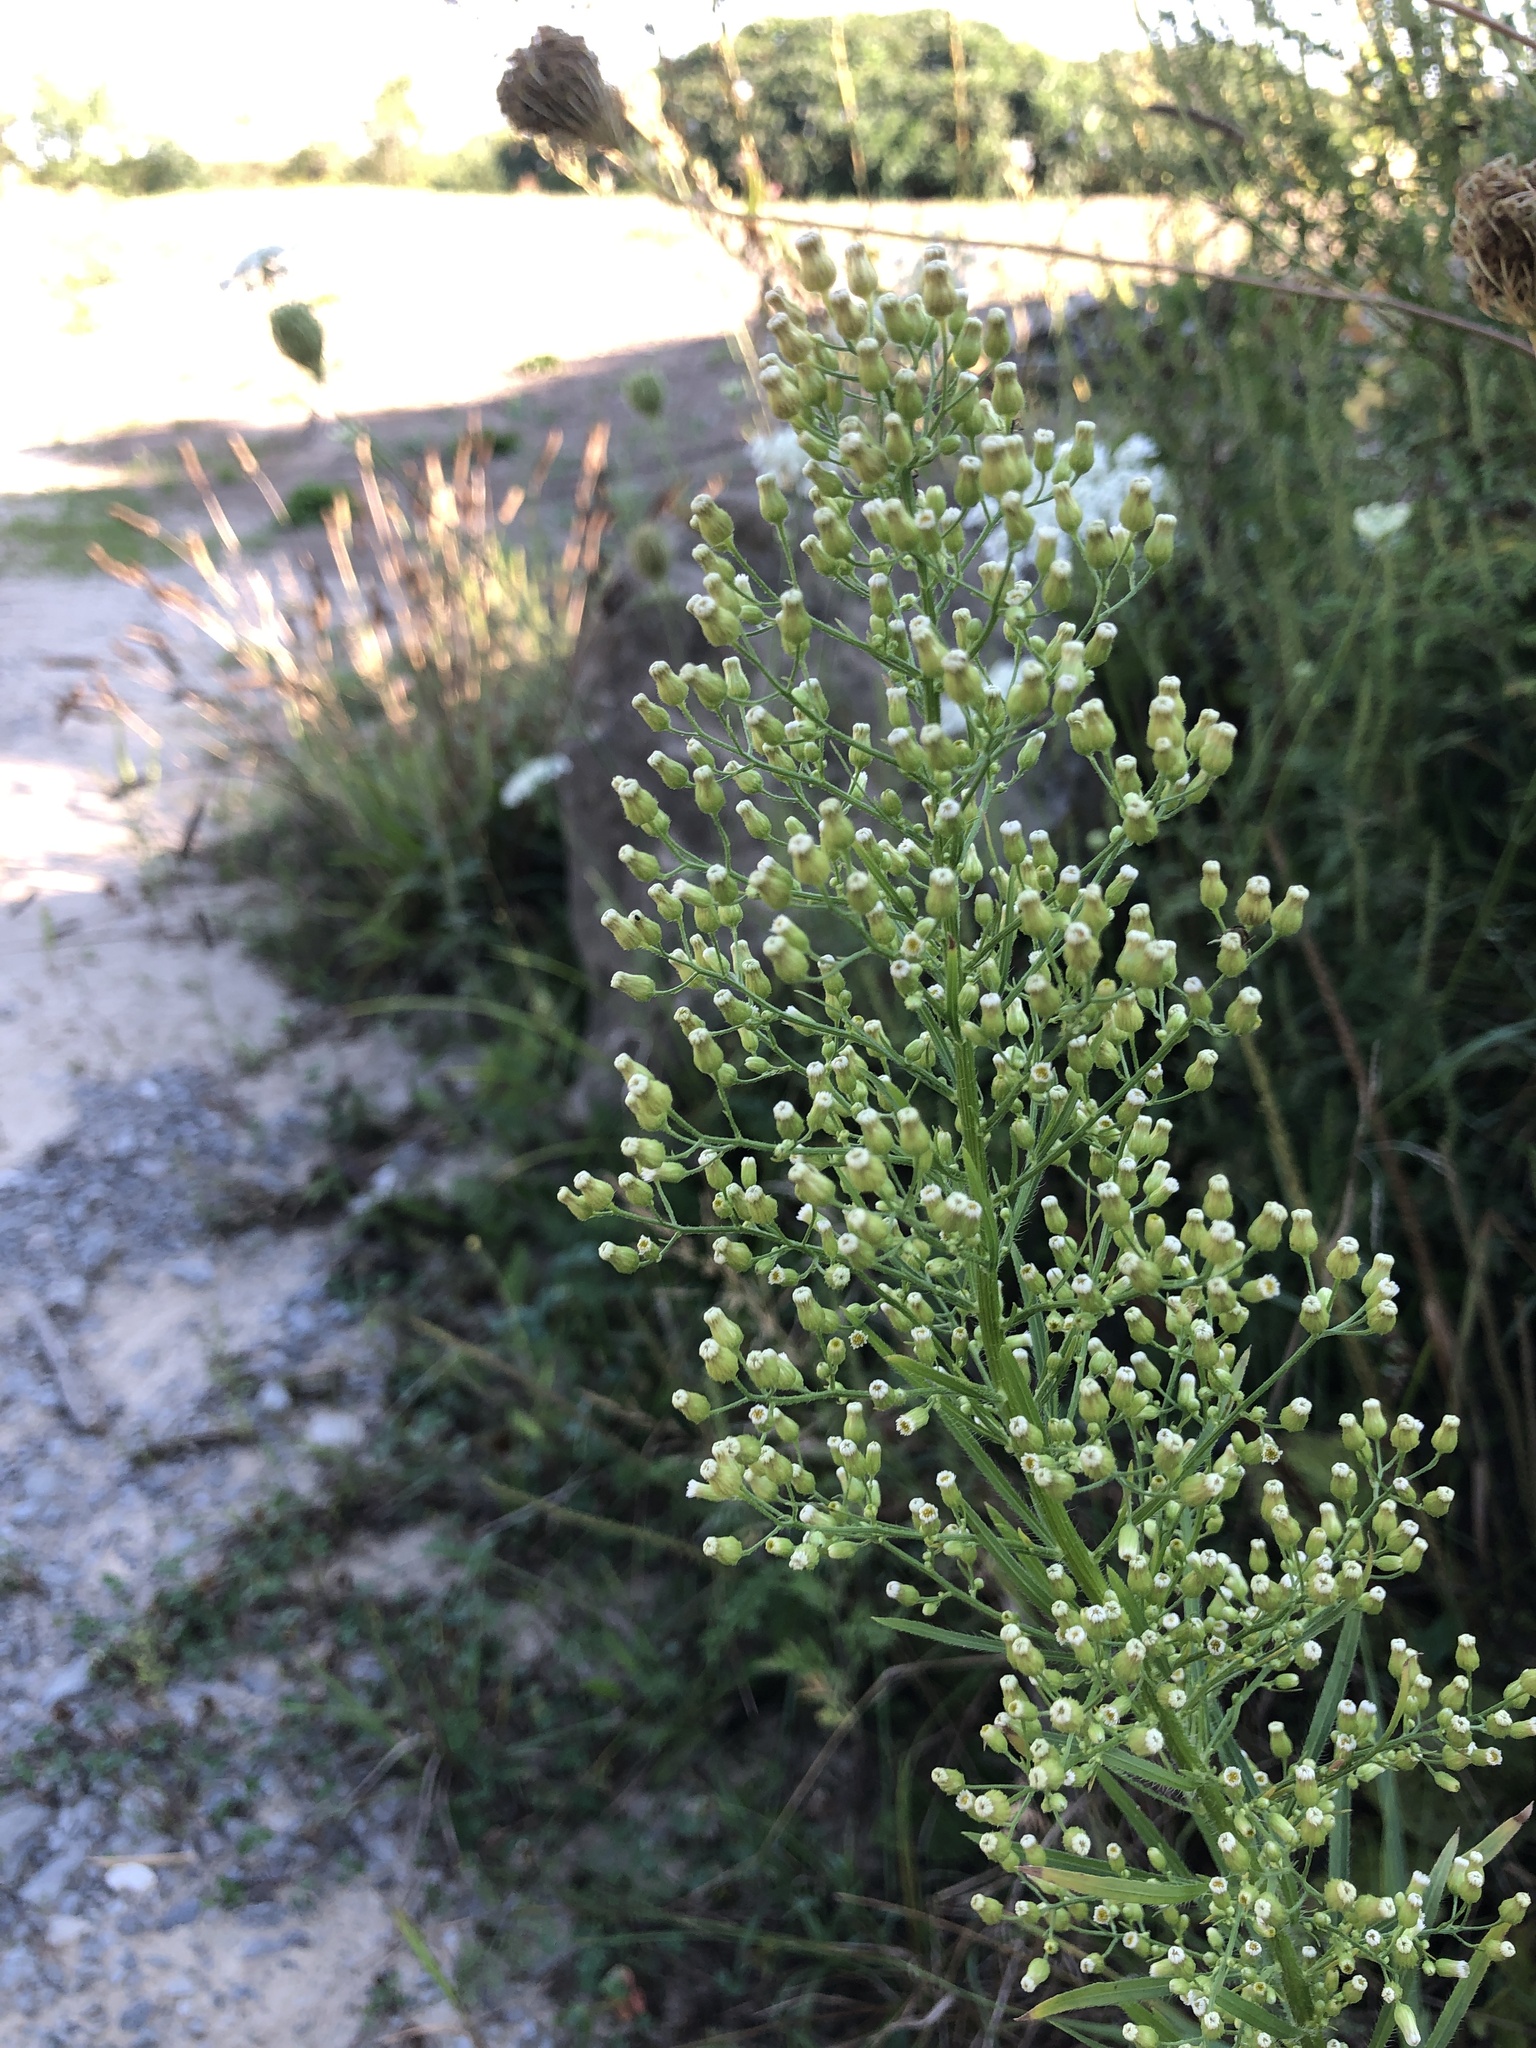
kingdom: Plantae
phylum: Tracheophyta
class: Magnoliopsida
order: Asterales
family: Asteraceae
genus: Erigeron
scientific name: Erigeron canadensis
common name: Canadian fleabane
